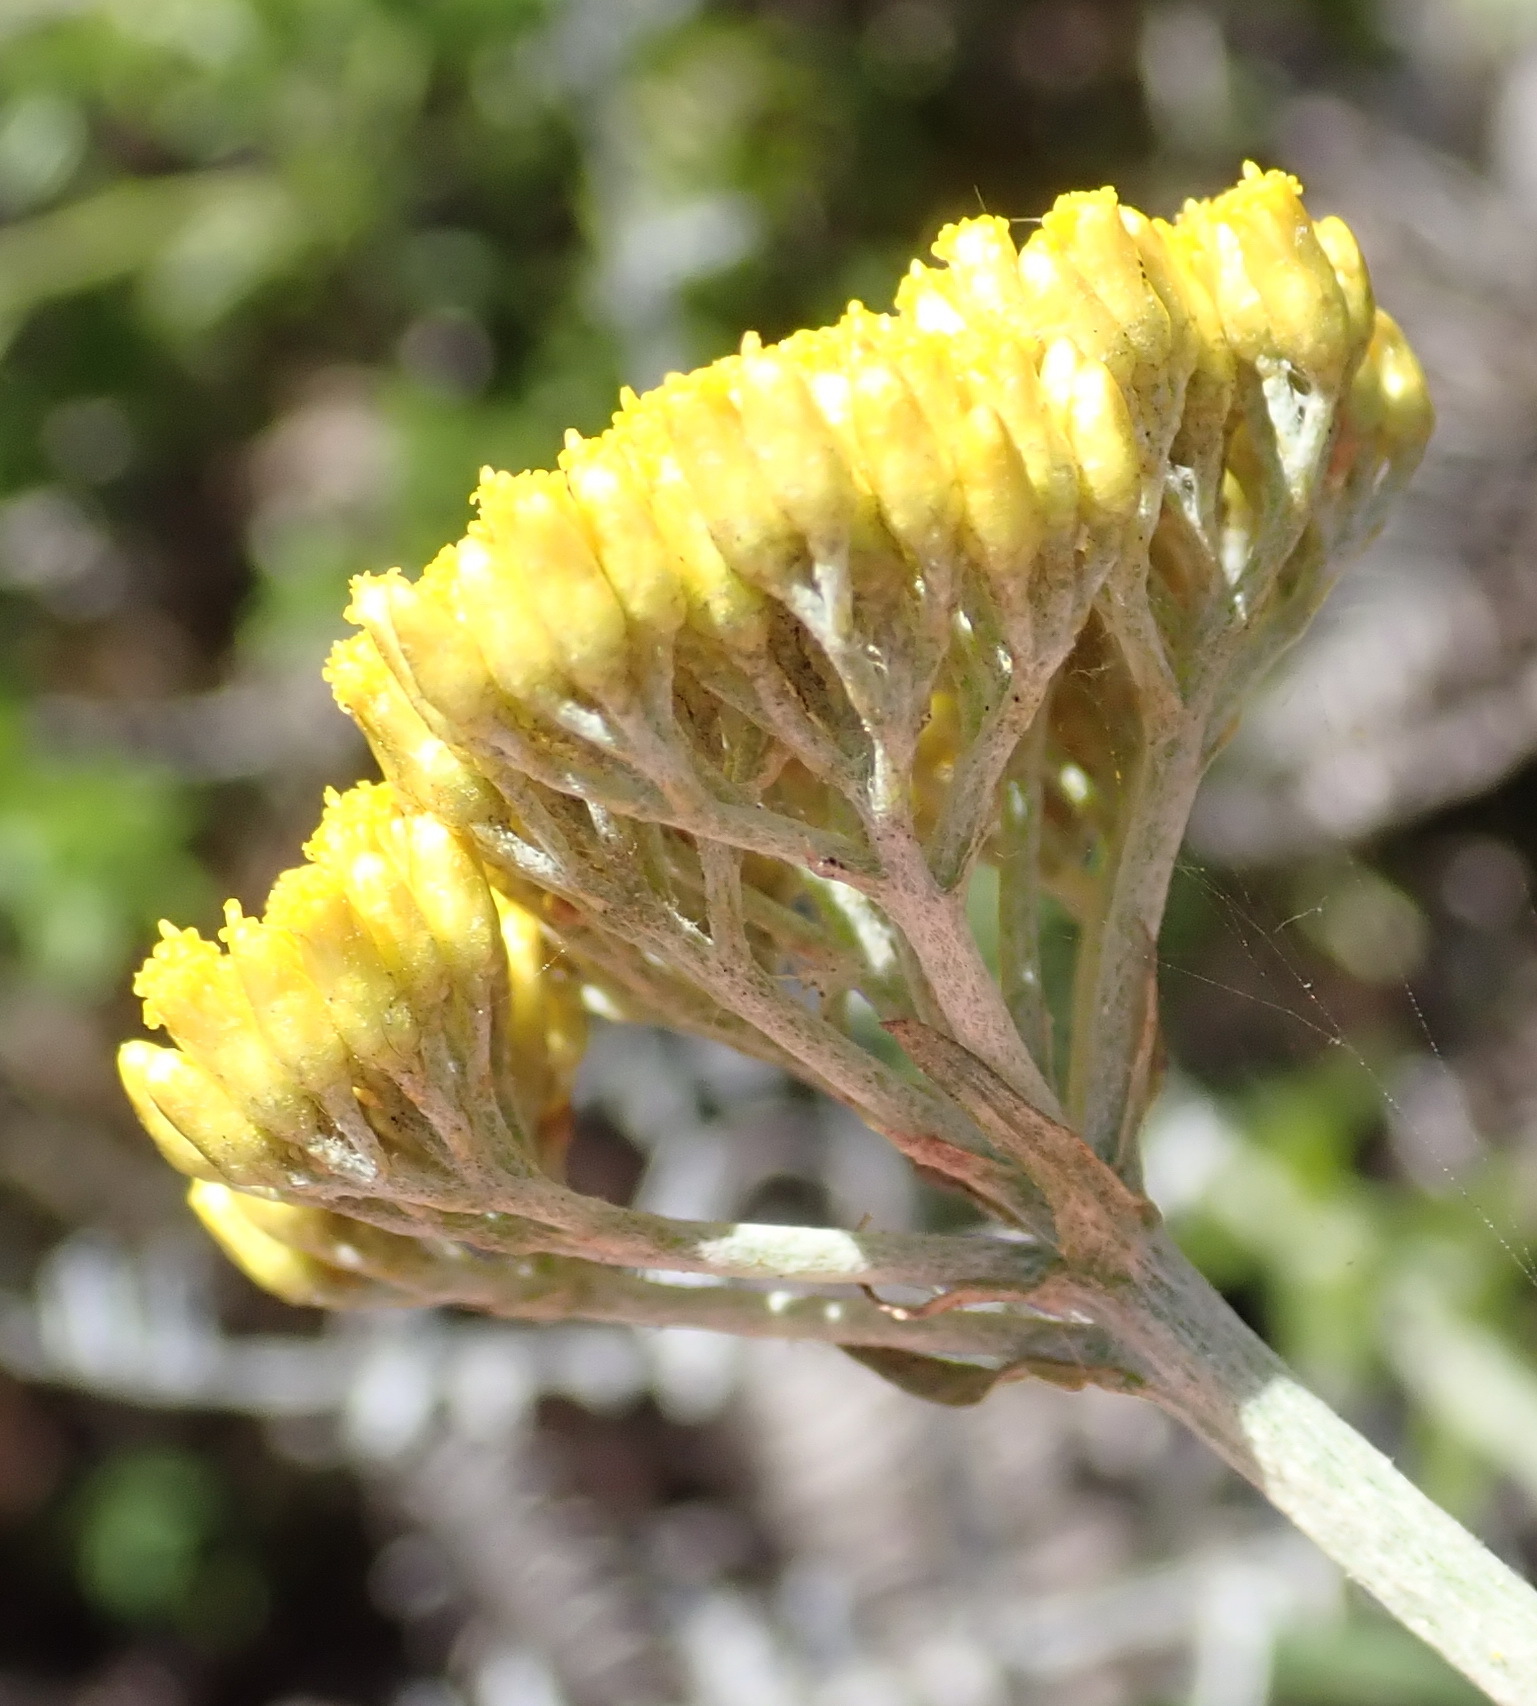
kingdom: Plantae
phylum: Tracheophyta
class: Magnoliopsida
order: Asterales
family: Asteraceae
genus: Helichrysum
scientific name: Helichrysum cymosum
